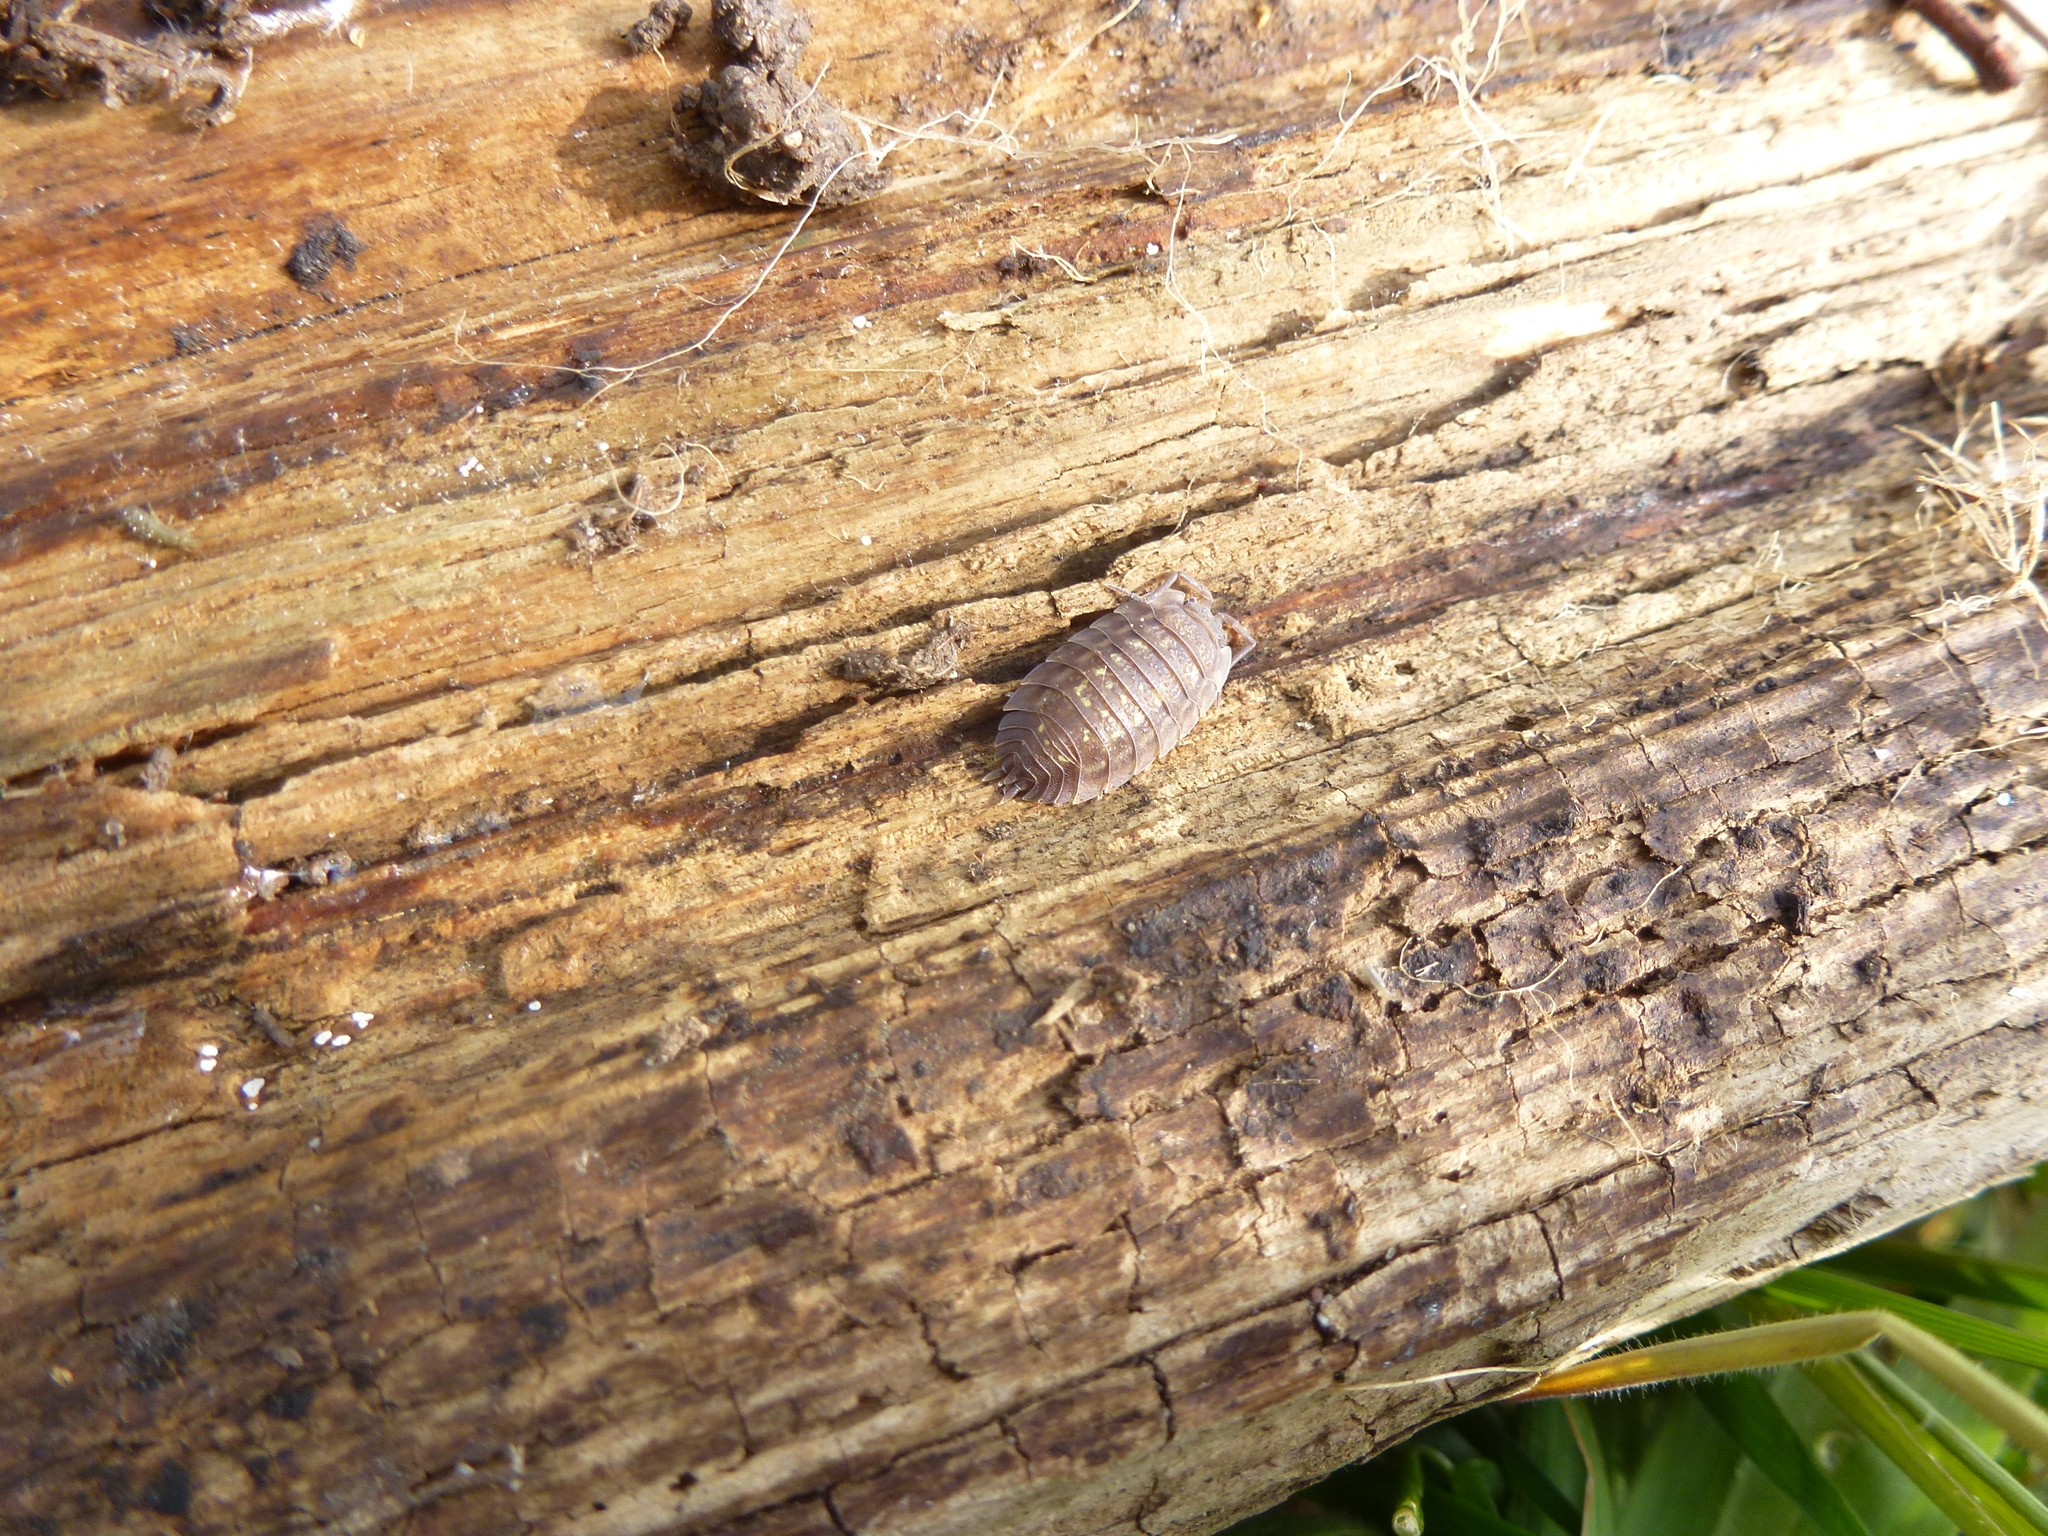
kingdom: Animalia
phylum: Arthropoda
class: Malacostraca
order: Isopoda
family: Oniscidae
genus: Oniscus
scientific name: Oniscus asellus
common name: Common shiny woodlouse
